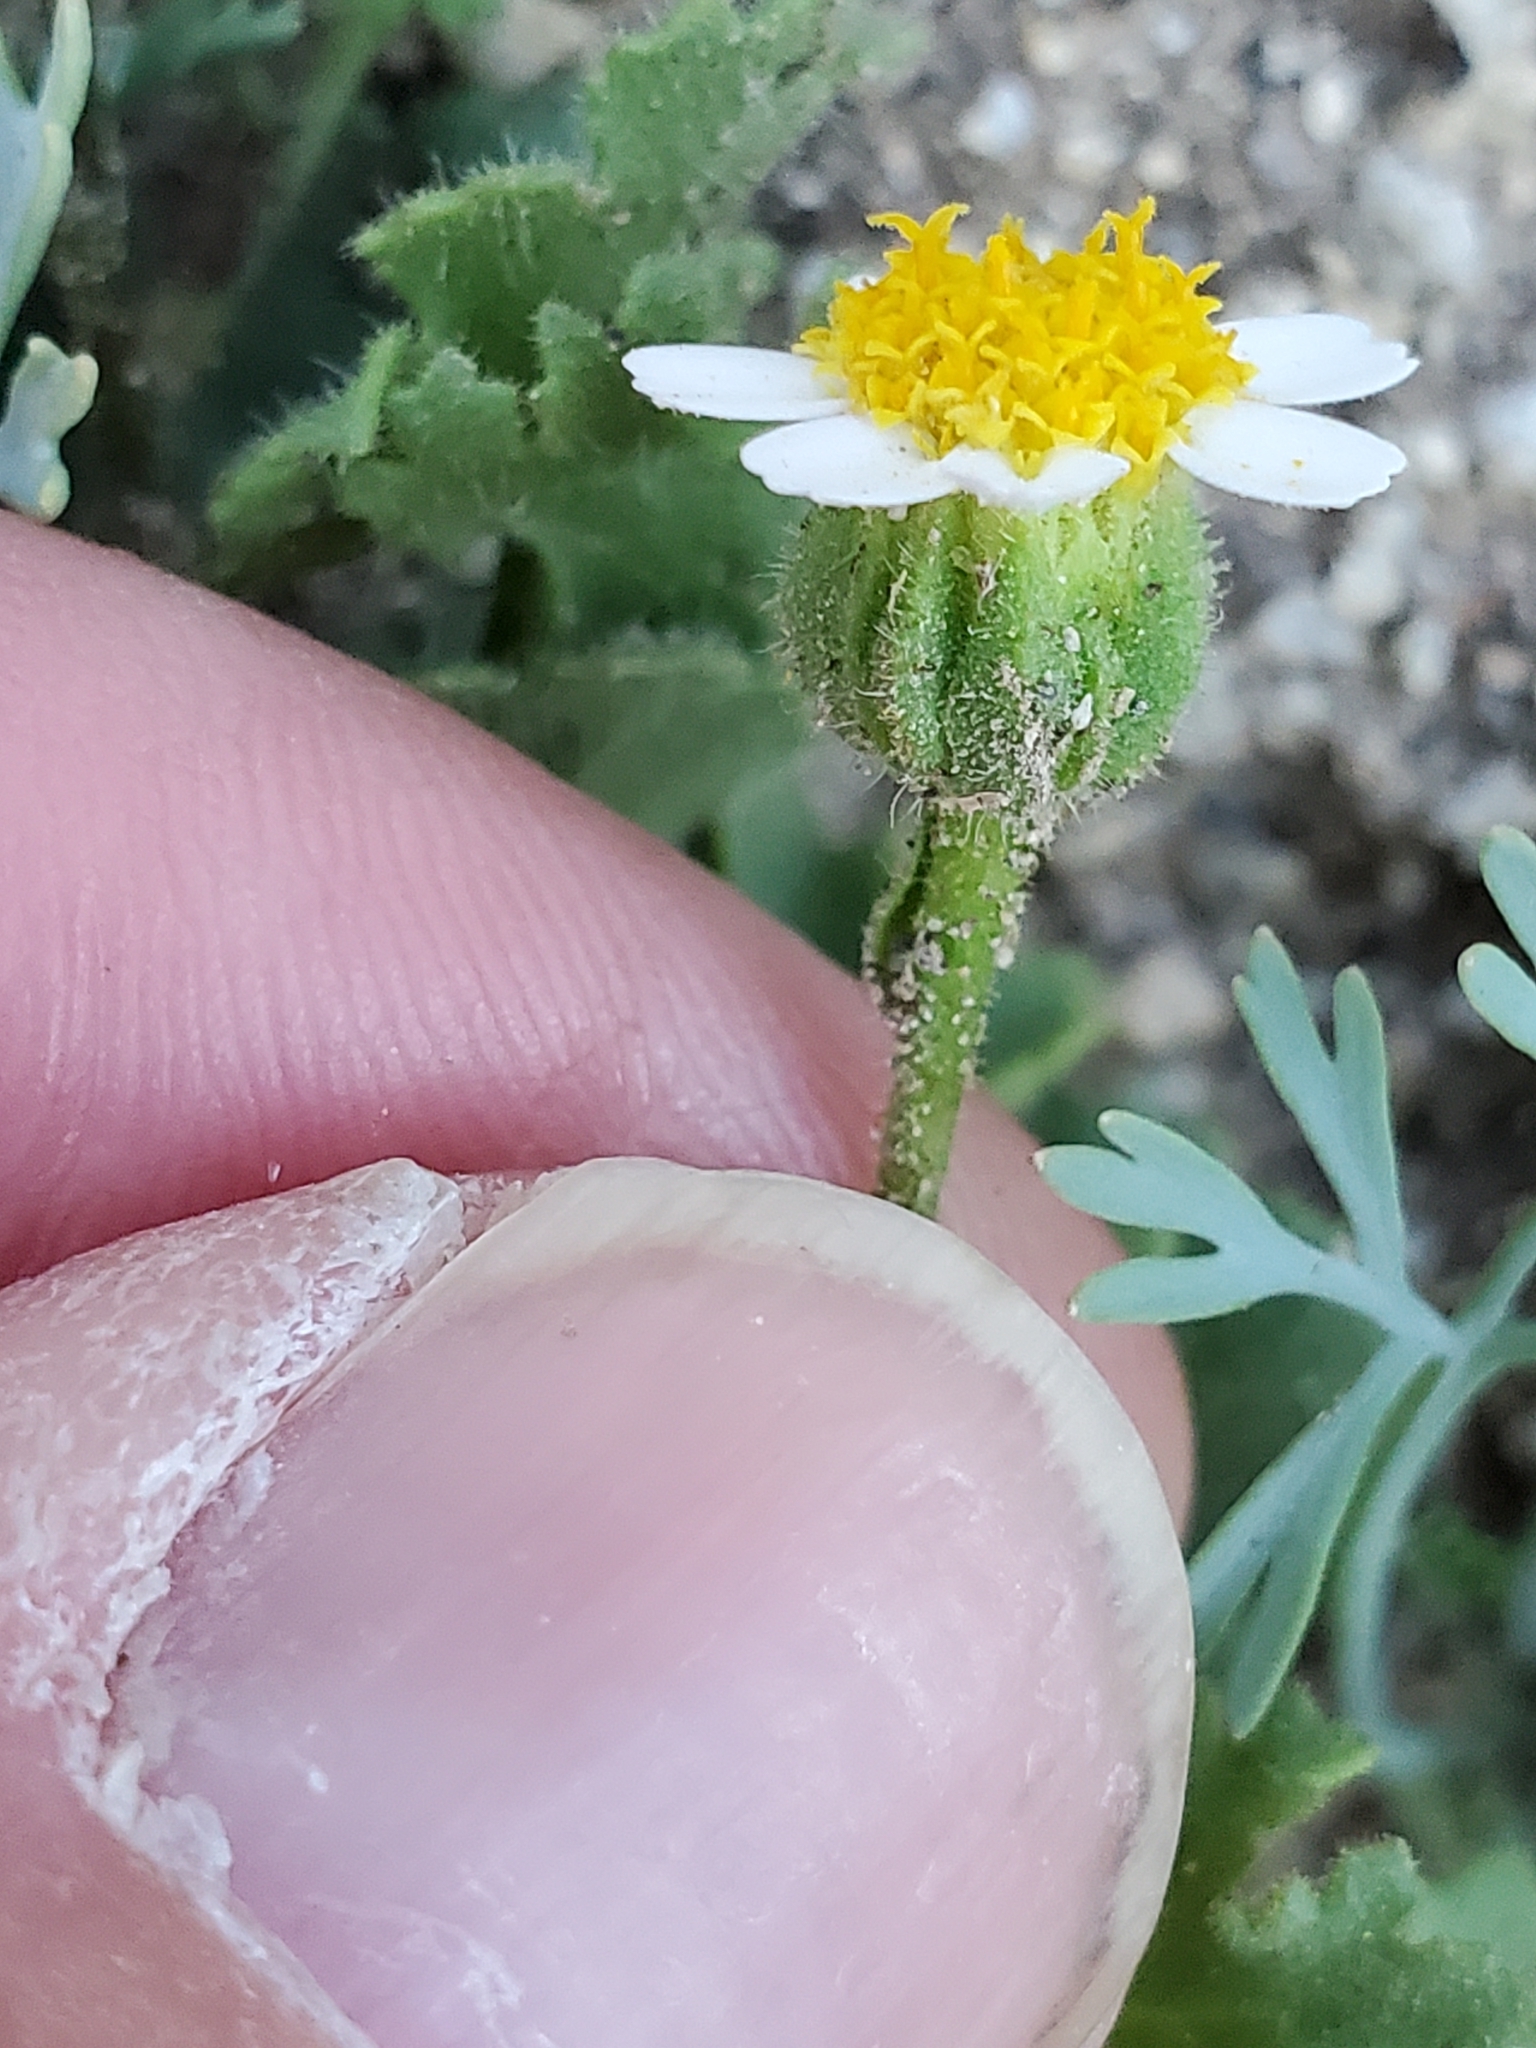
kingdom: Plantae
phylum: Tracheophyta
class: Magnoliopsida
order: Asterales
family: Asteraceae
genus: Laphamia
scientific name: Laphamia emoryi
